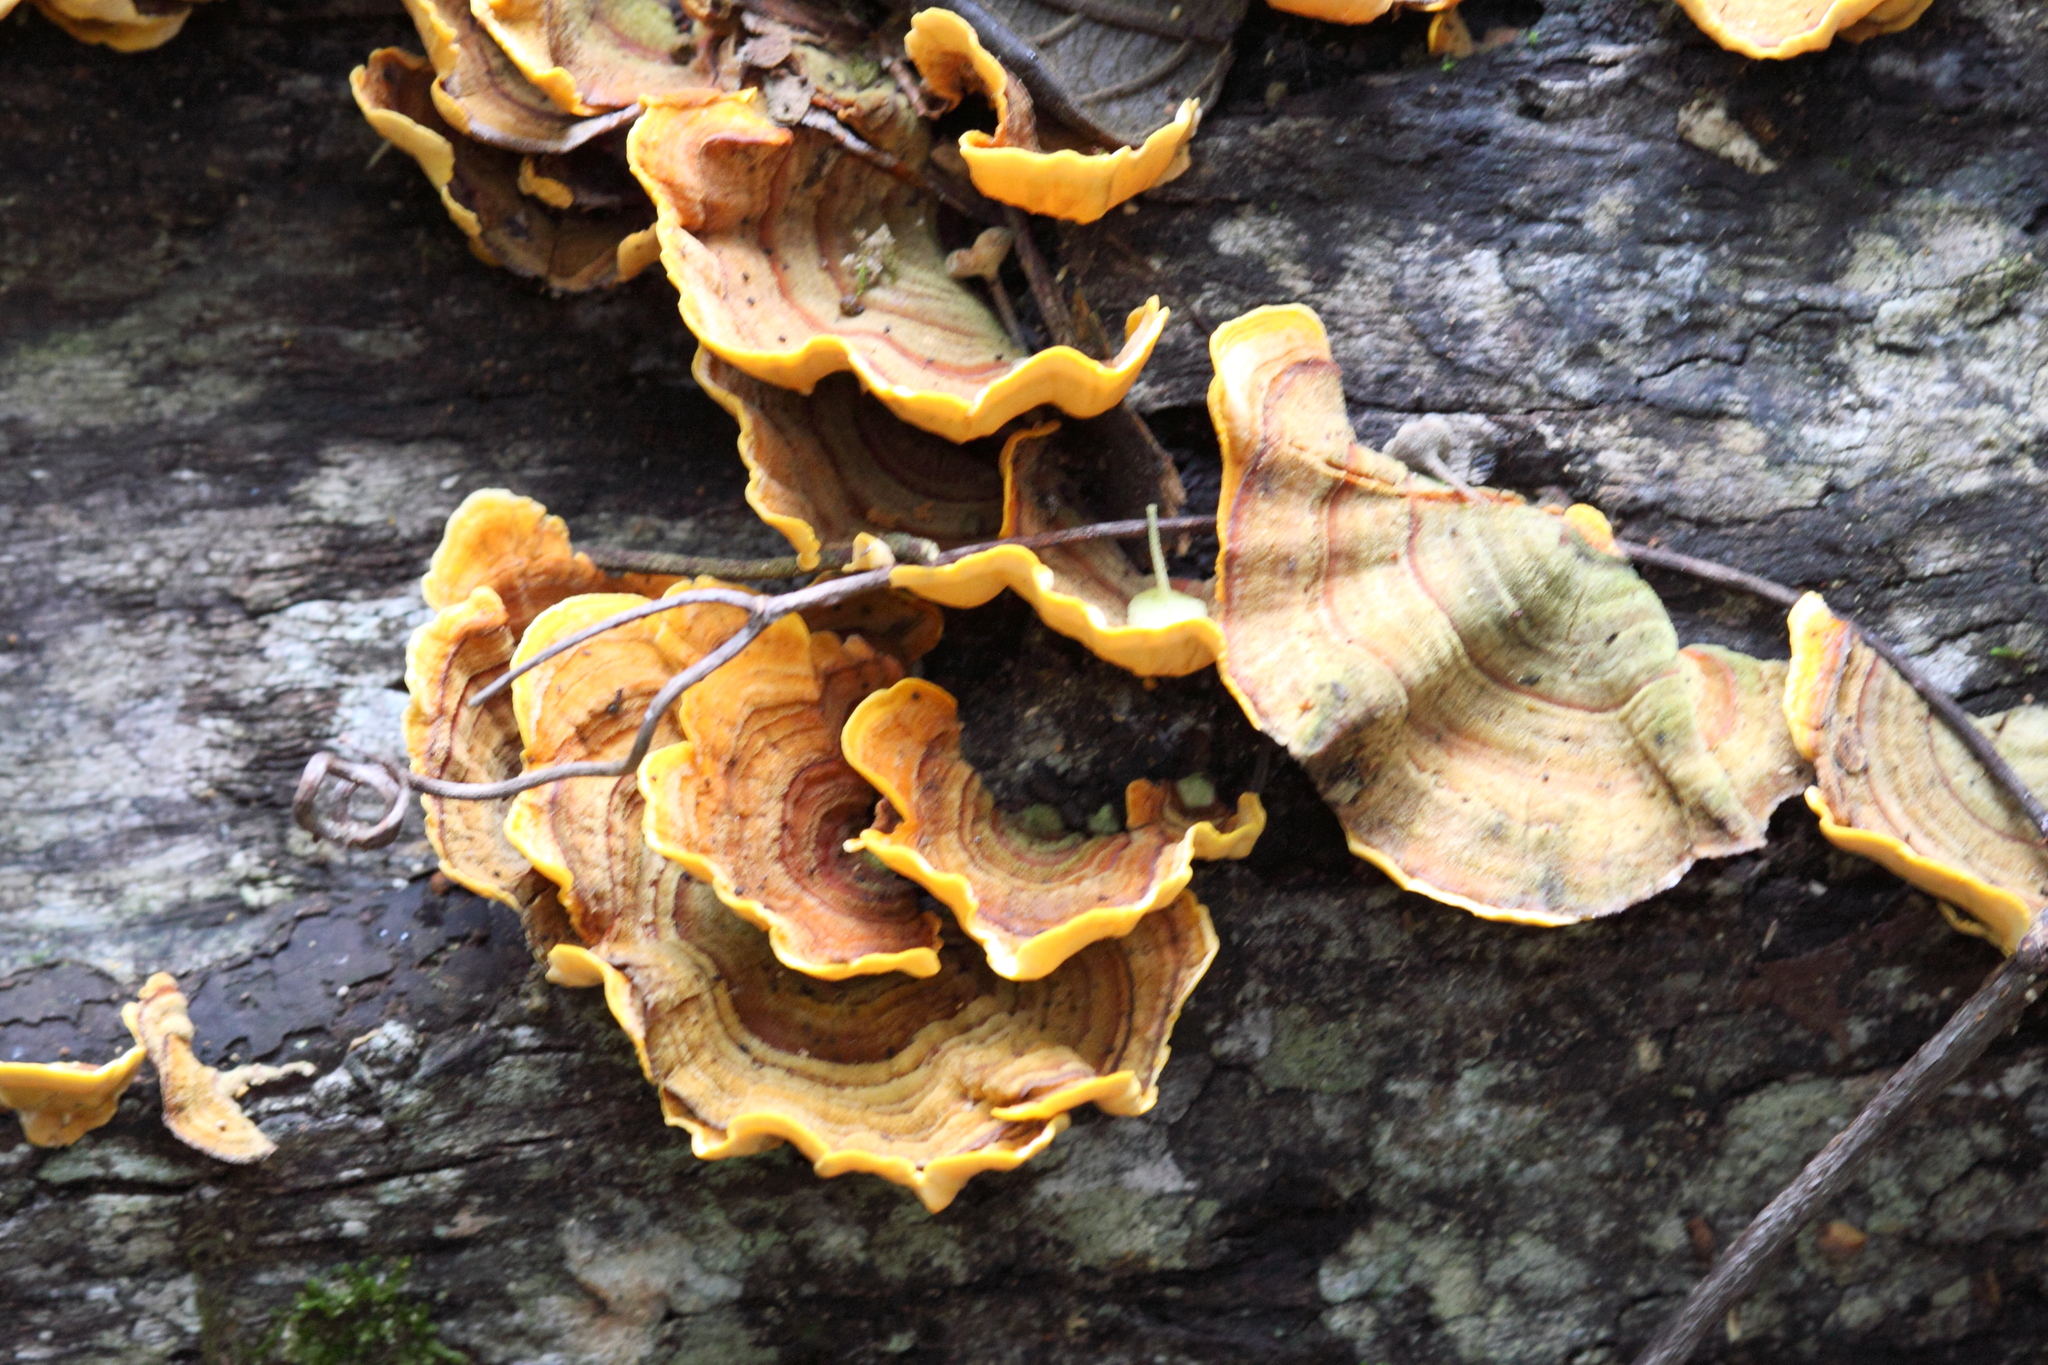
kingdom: Fungi
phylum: Basidiomycota
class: Agaricomycetes
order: Russulales
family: Stereaceae
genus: Stereum
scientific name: Stereum versicolor
